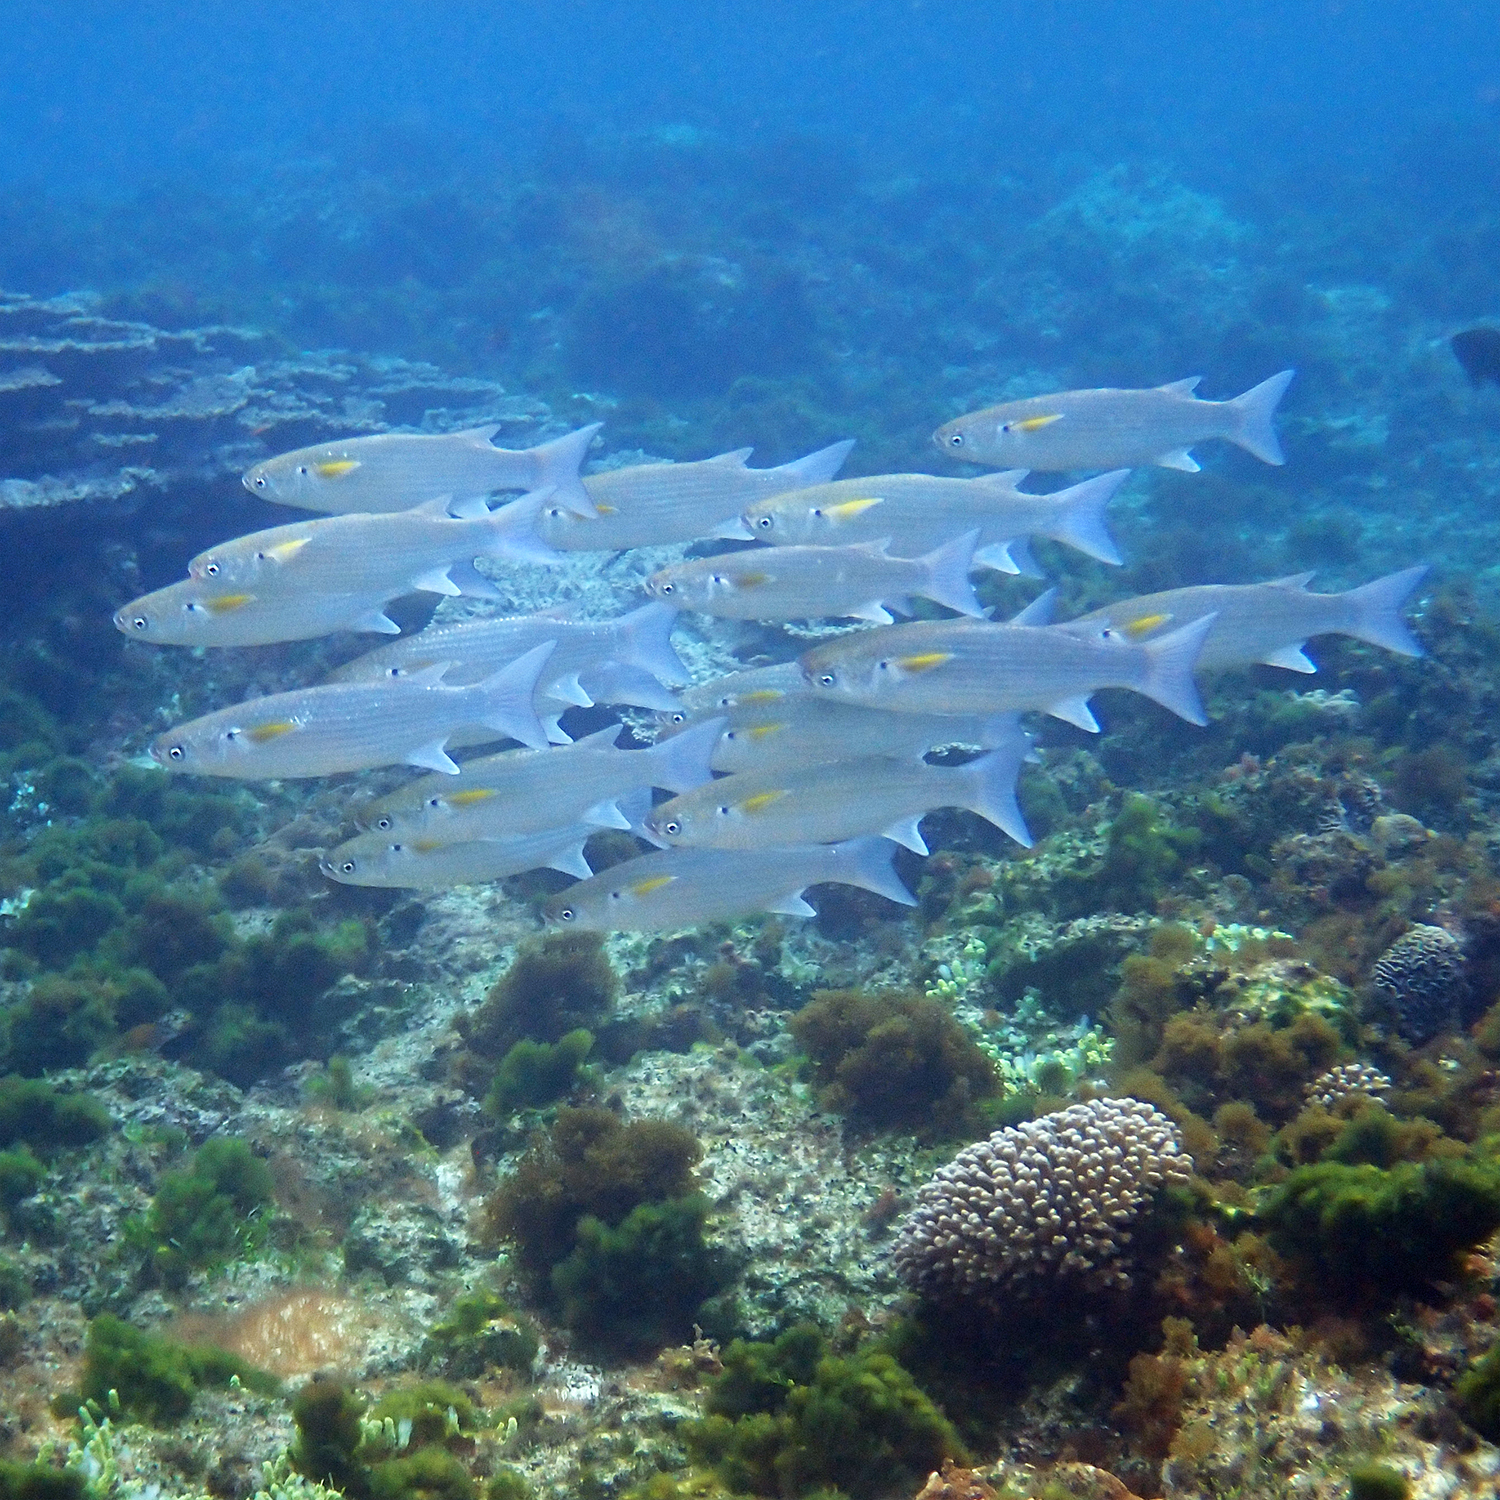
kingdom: Animalia
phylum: Chordata
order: Mugiliformes
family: Mugilidae
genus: Crenimugil
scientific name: Crenimugil crenilabis
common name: Fringelip mullet
